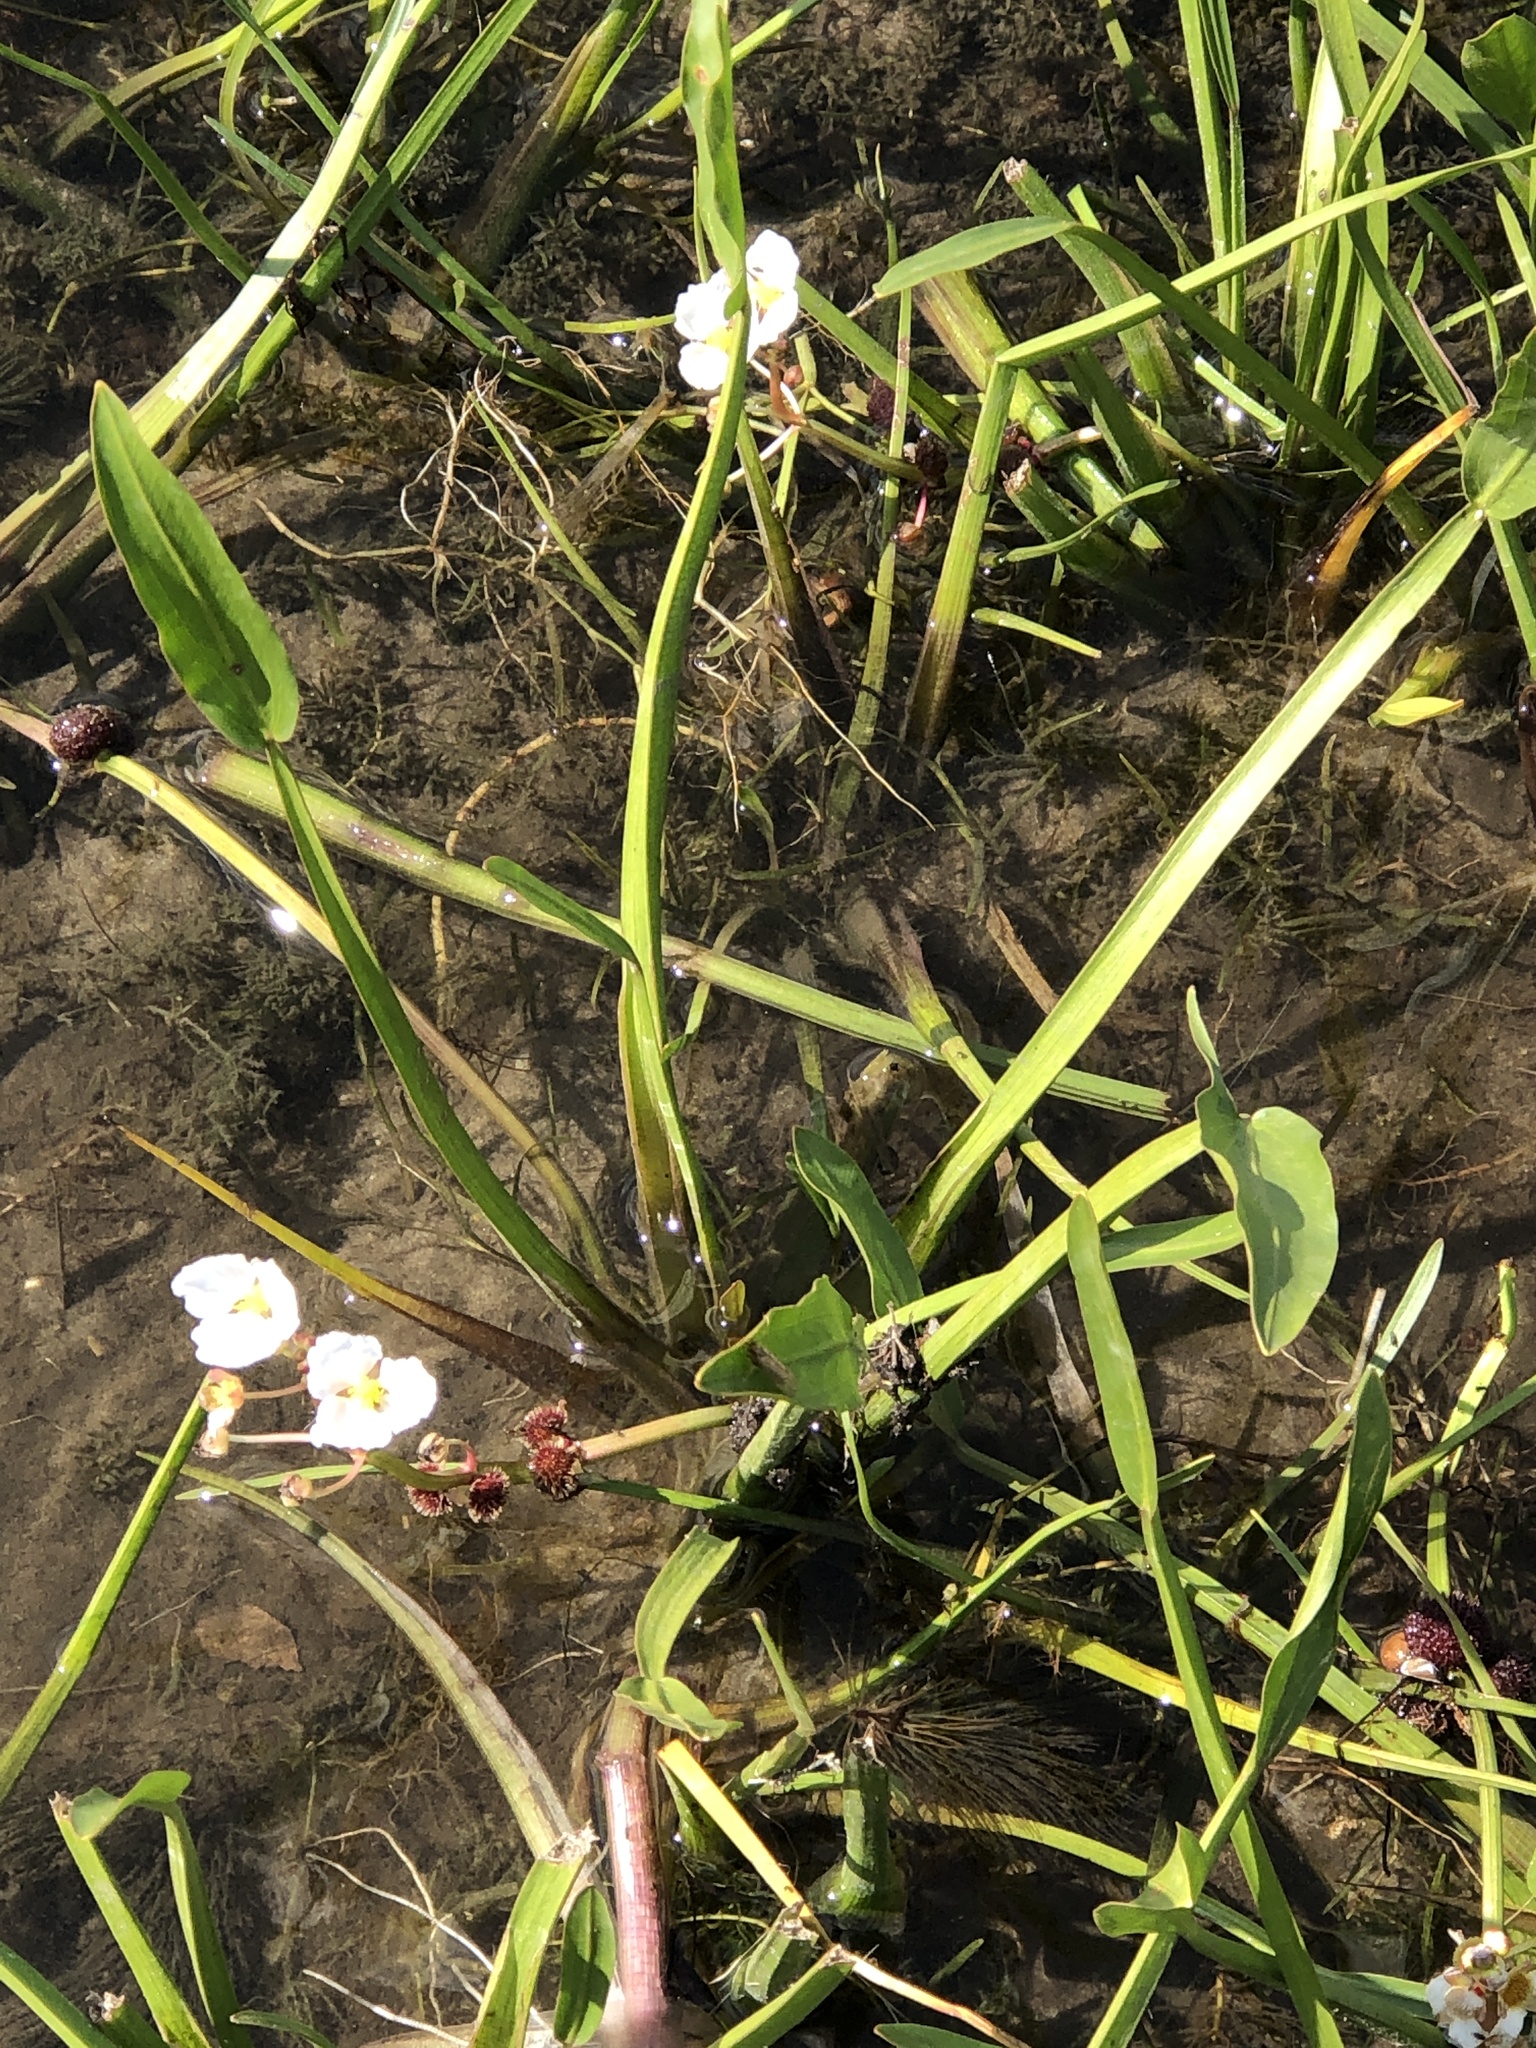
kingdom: Plantae
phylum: Tracheophyta
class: Liliopsida
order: Alismatales
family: Alismataceae
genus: Sagittaria
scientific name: Sagittaria rigida
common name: Canadian arrowhead
